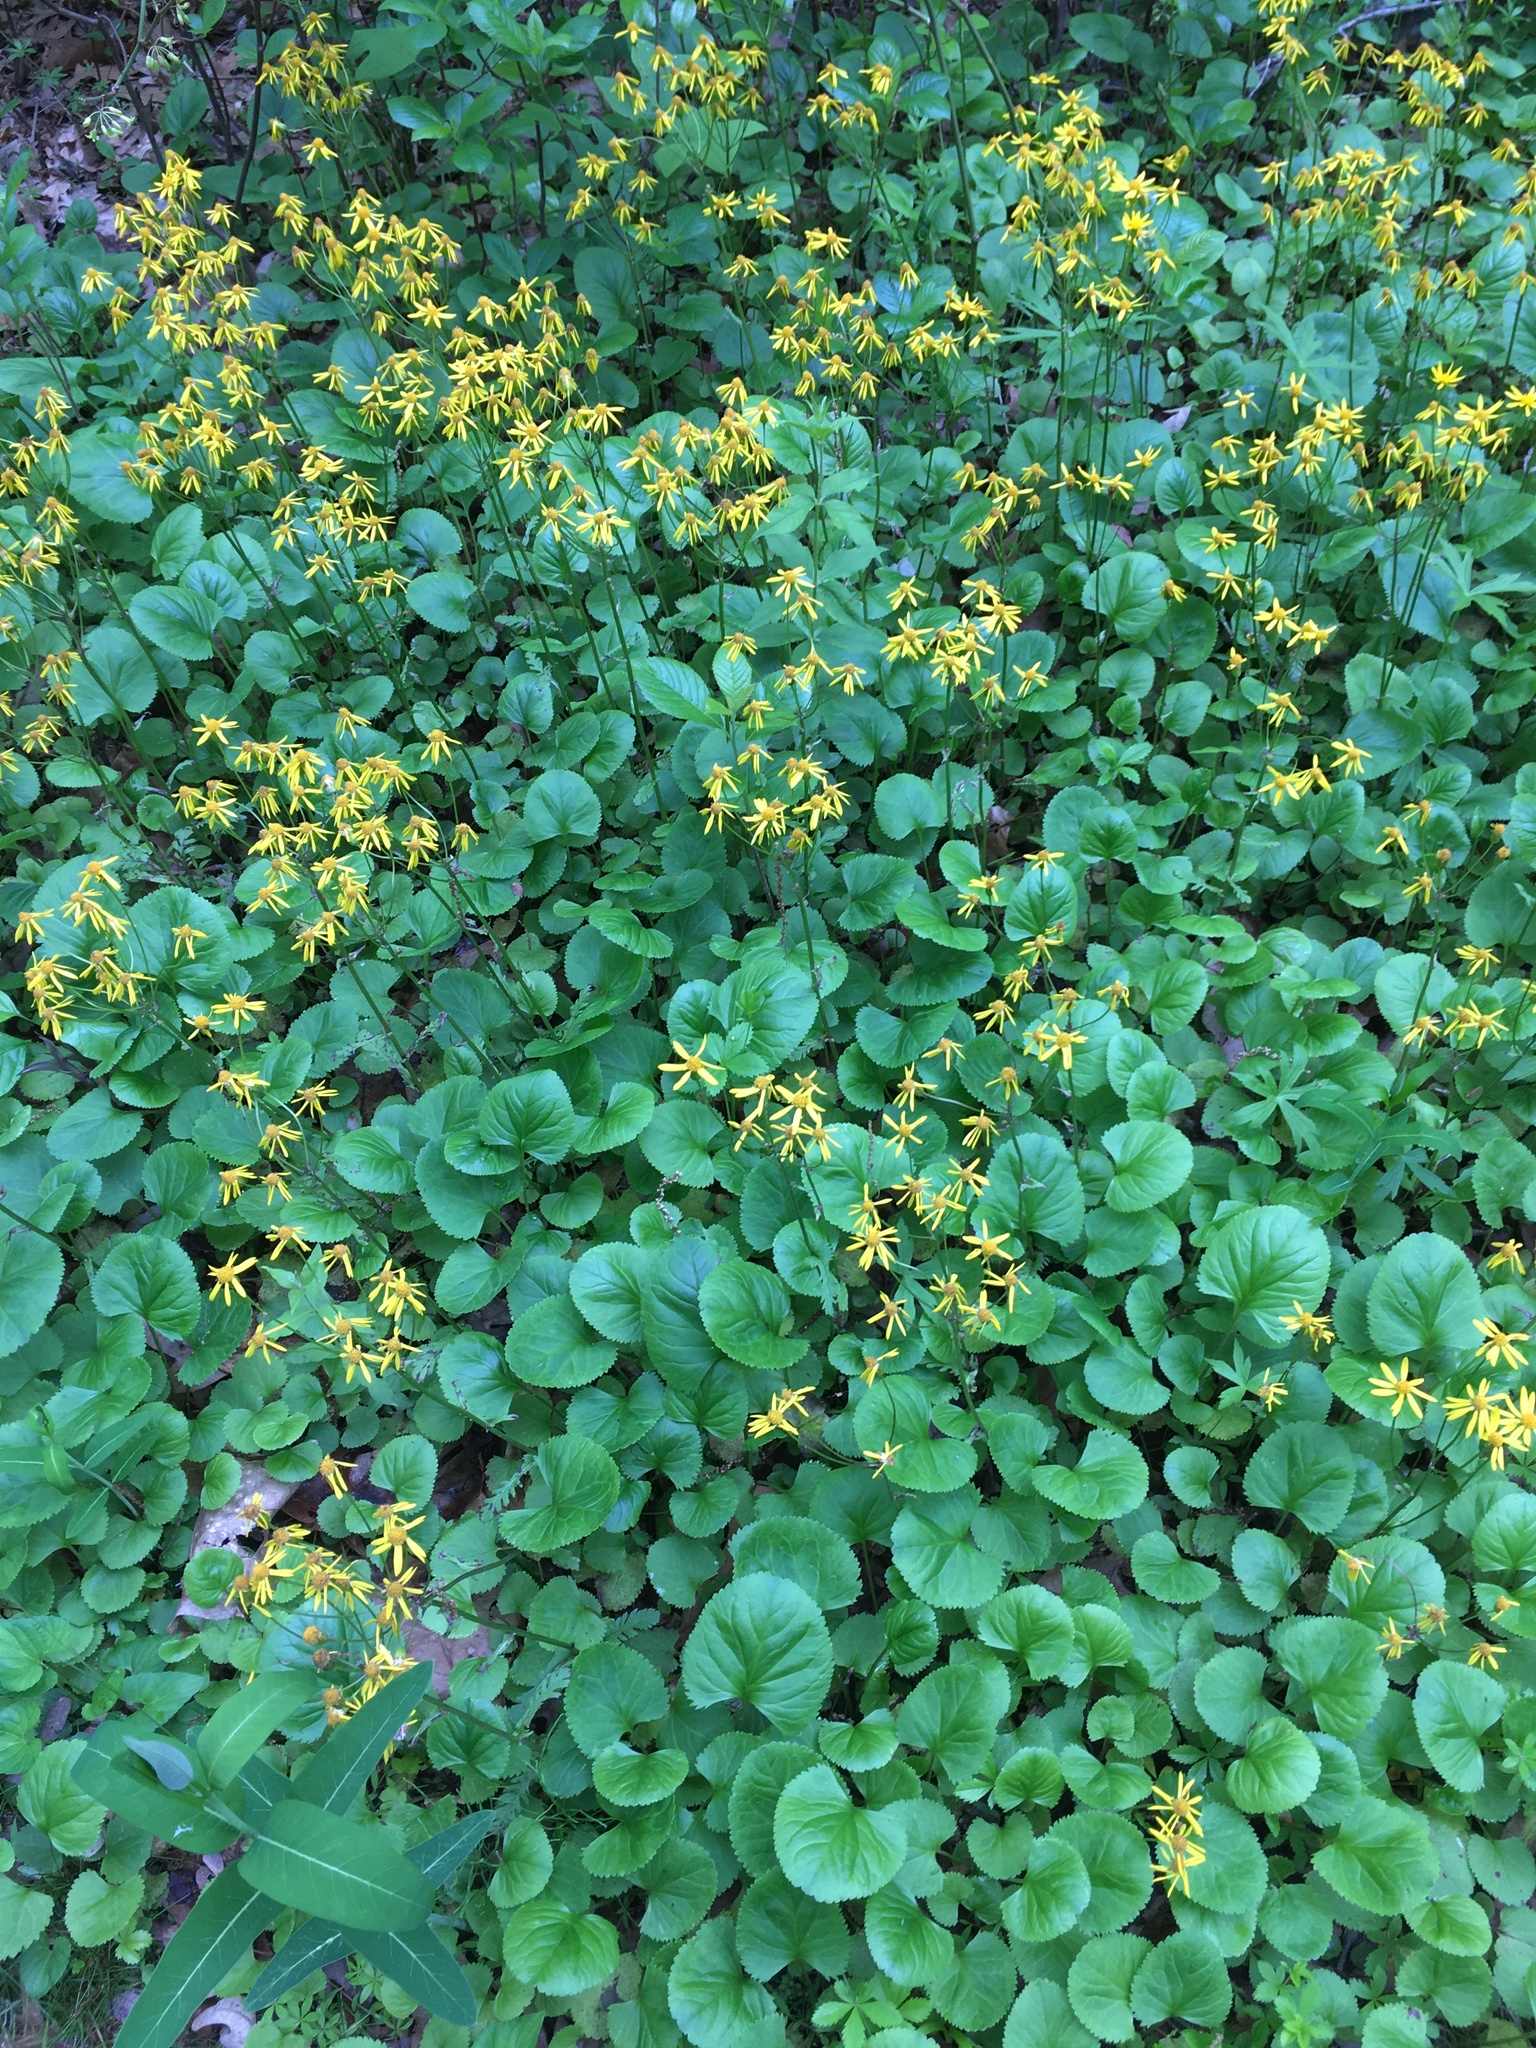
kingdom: Plantae
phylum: Tracheophyta
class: Magnoliopsida
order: Asterales
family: Asteraceae
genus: Packera
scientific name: Packera aurea
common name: Golden groundsel
